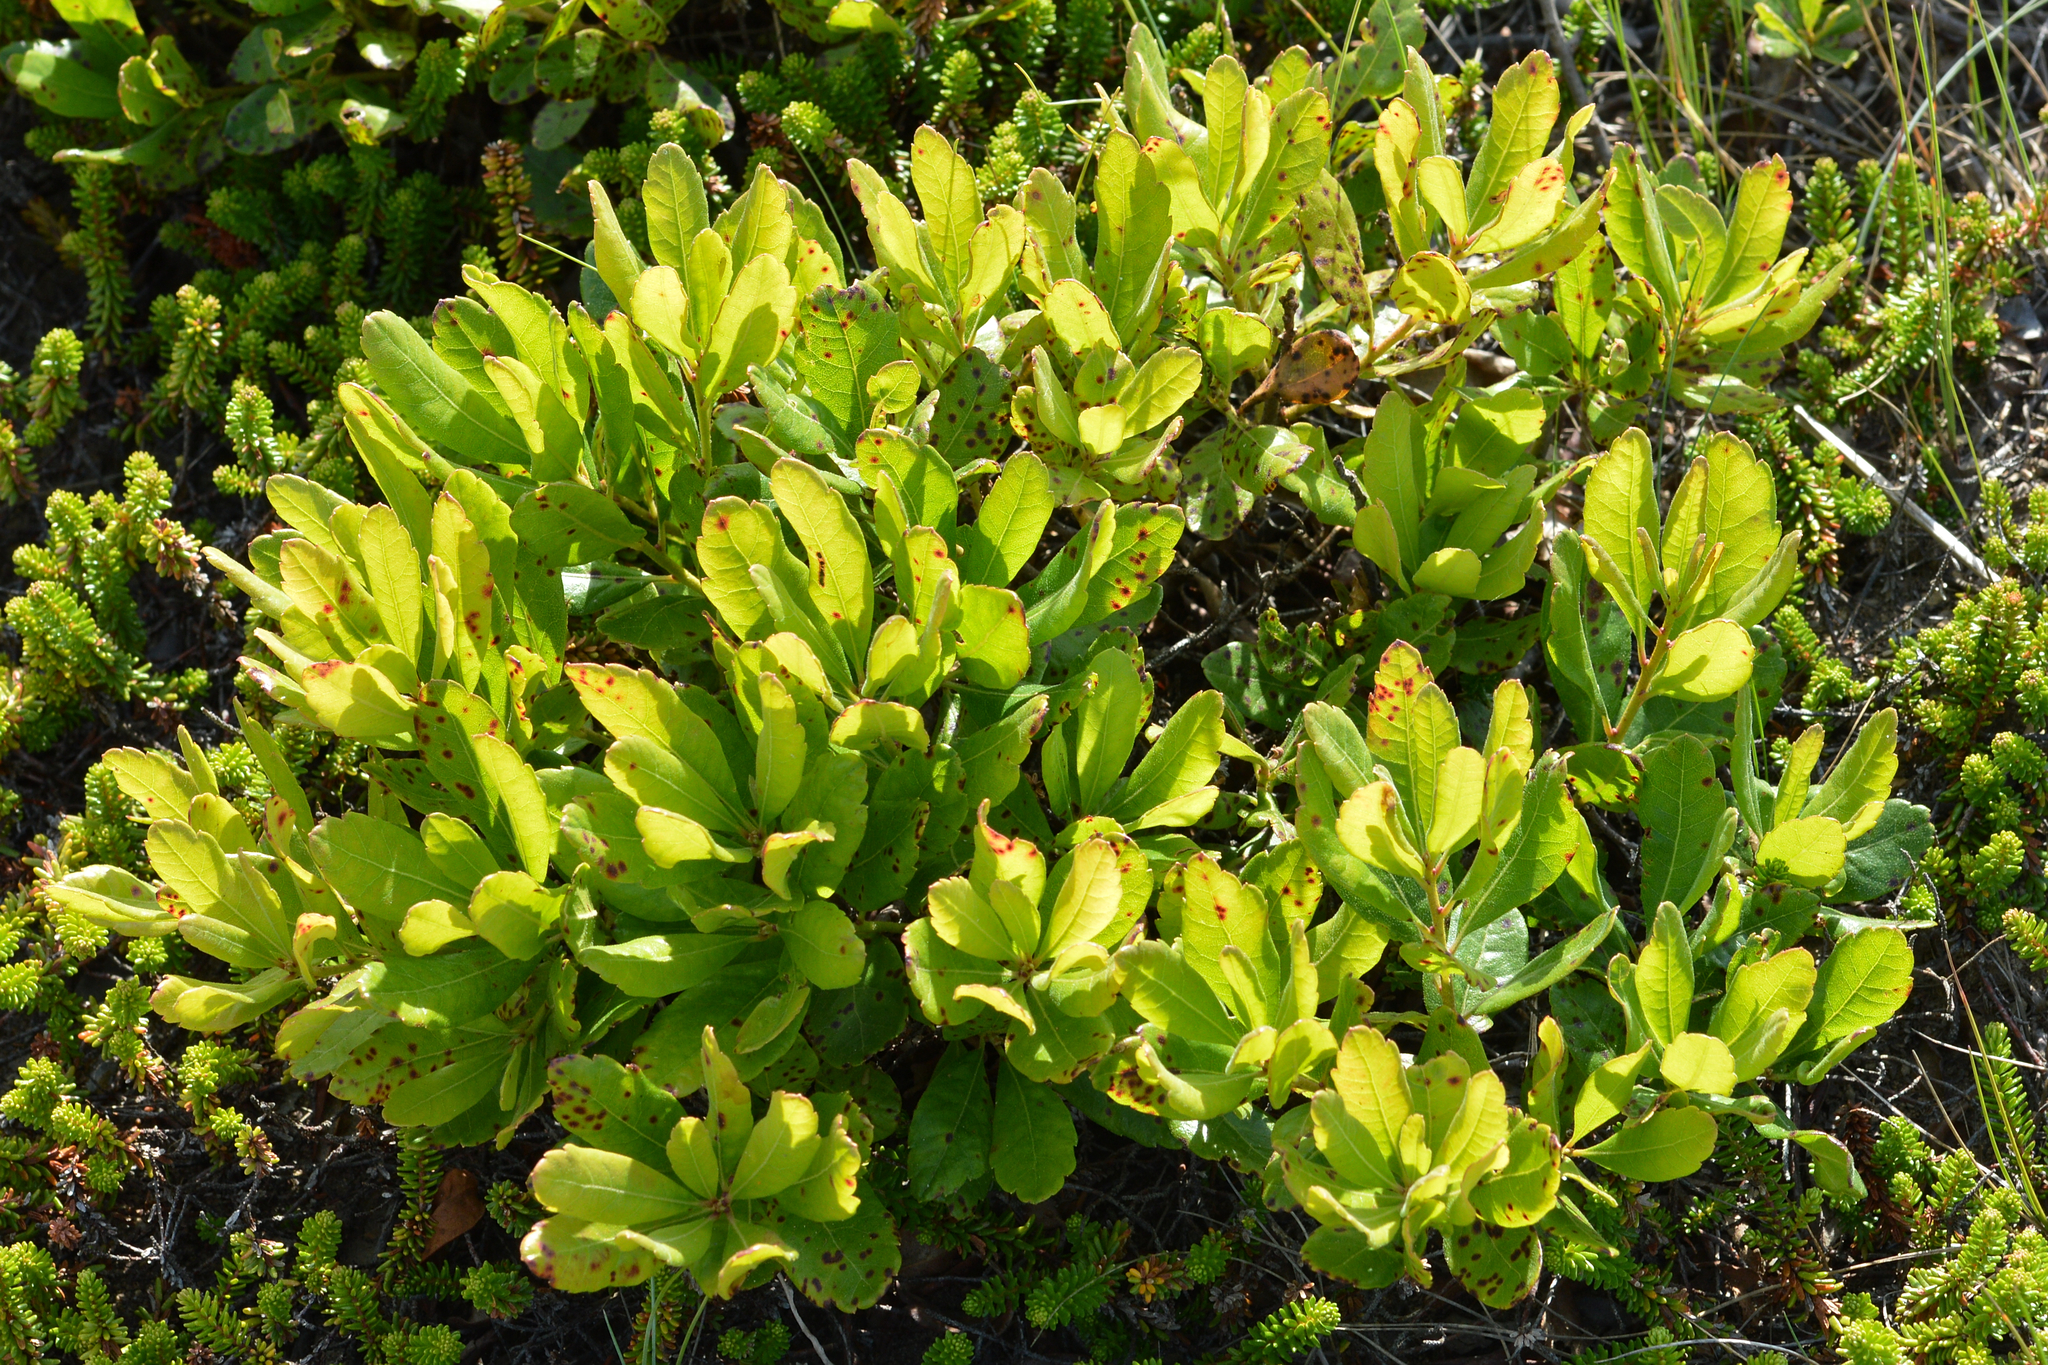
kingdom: Plantae
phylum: Tracheophyta
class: Magnoliopsida
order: Fagales
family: Myricaceae
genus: Morella
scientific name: Morella pensylvanica
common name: Northern bayberry
